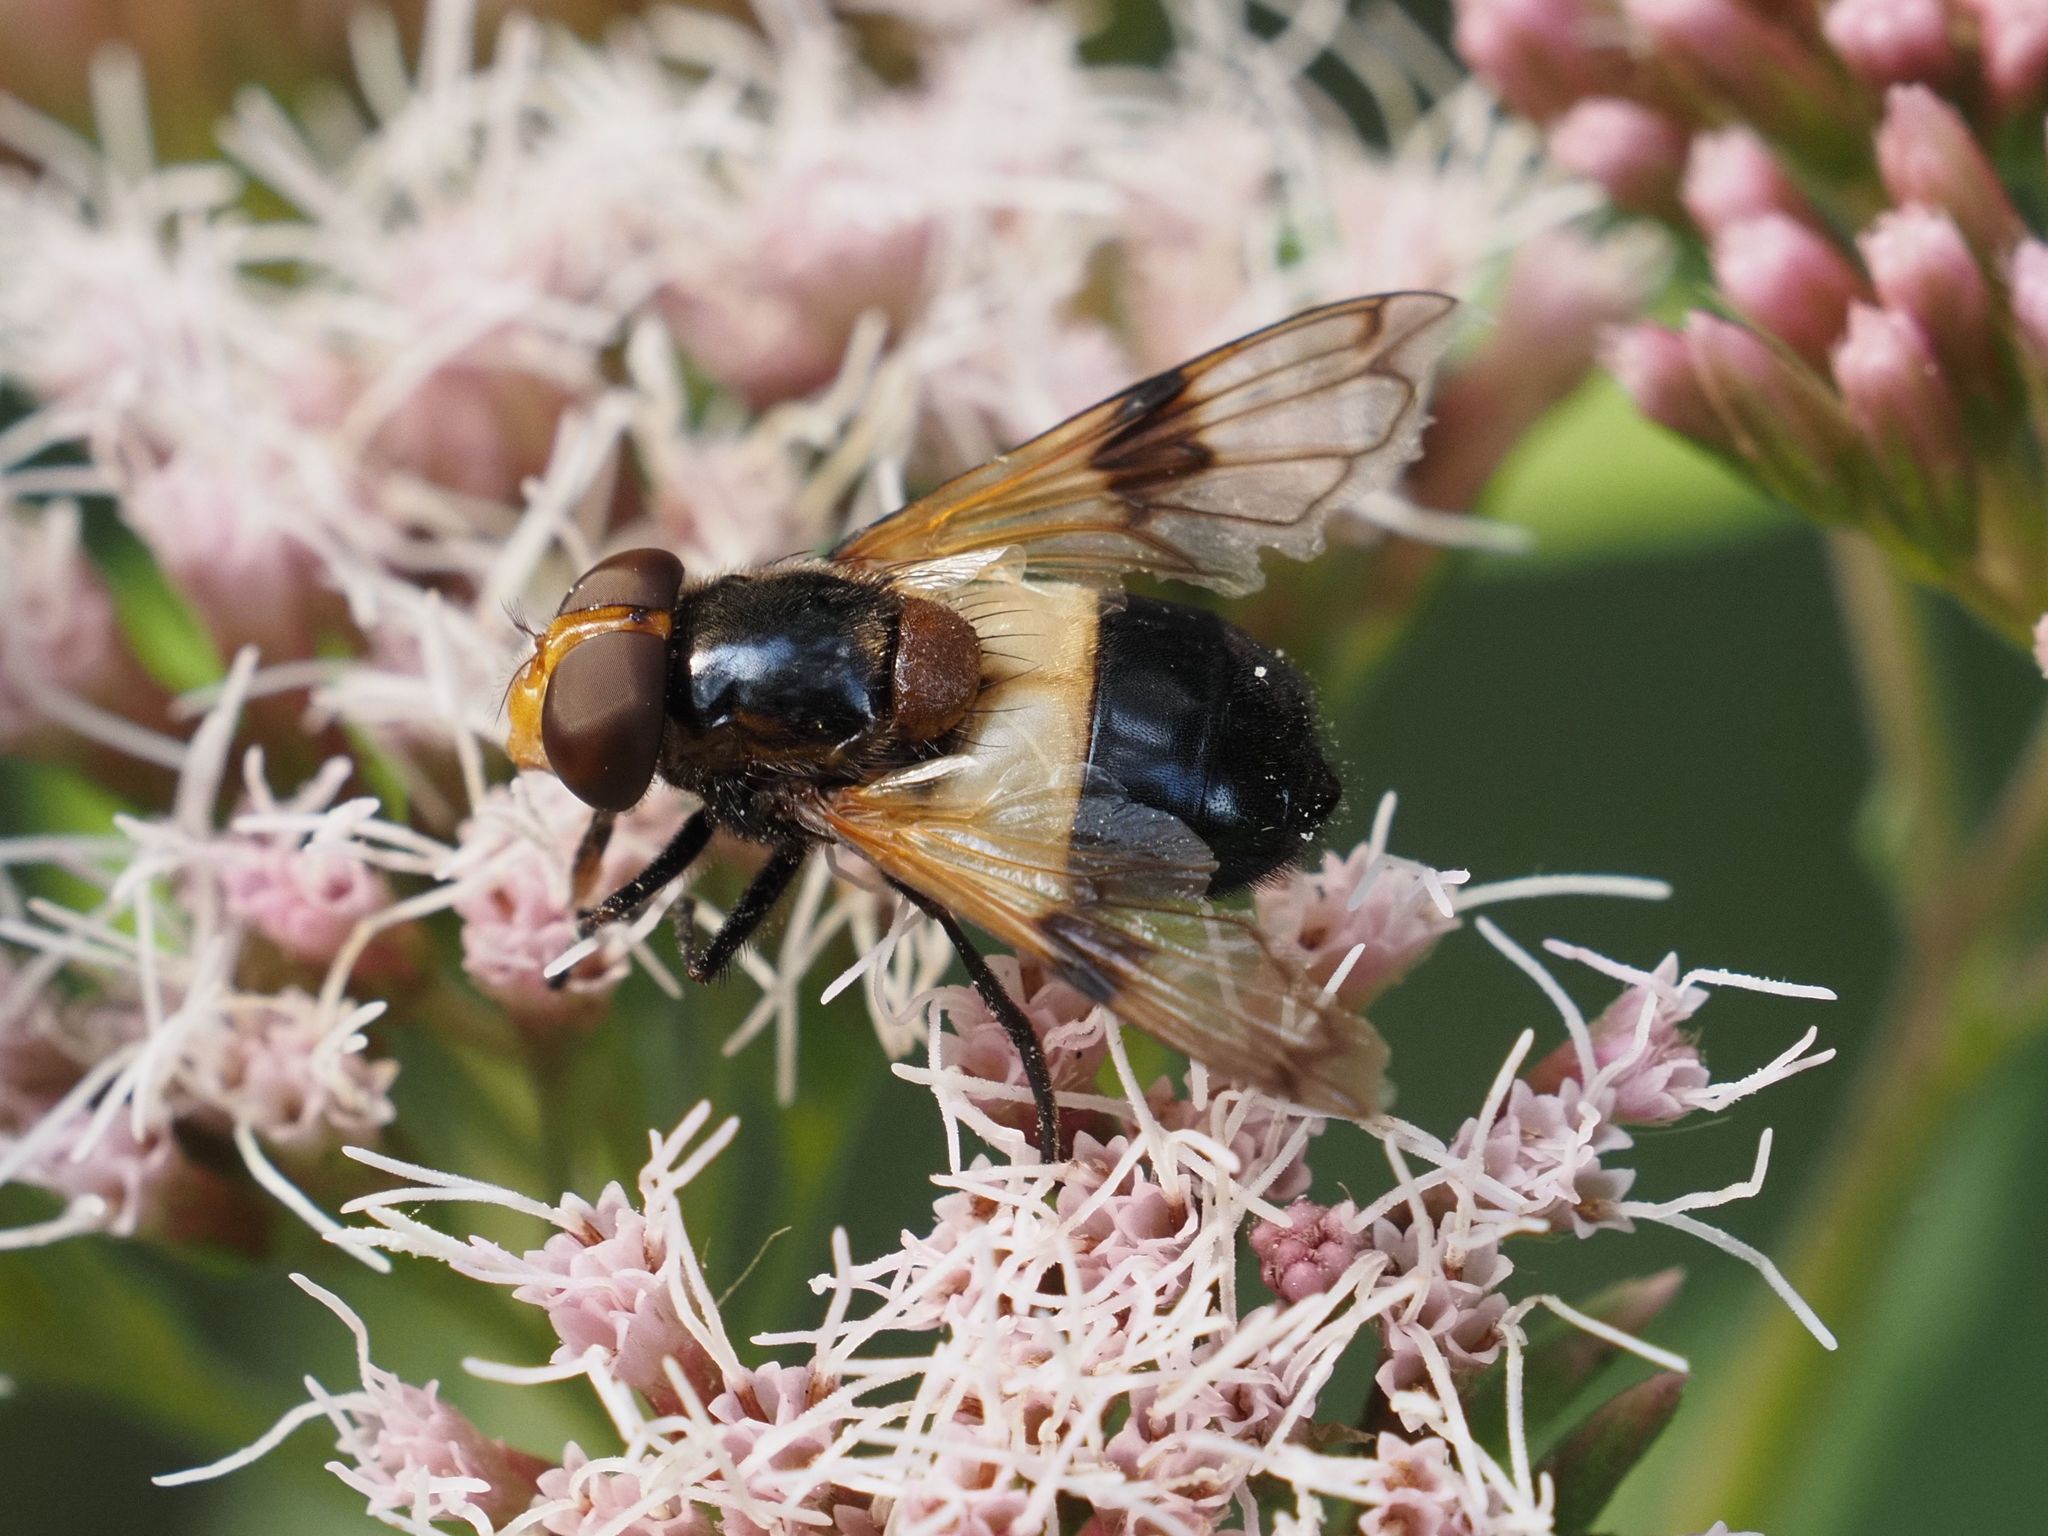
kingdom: Animalia
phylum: Arthropoda
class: Insecta
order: Diptera
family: Syrphidae
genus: Volucella
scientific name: Volucella pellucens
